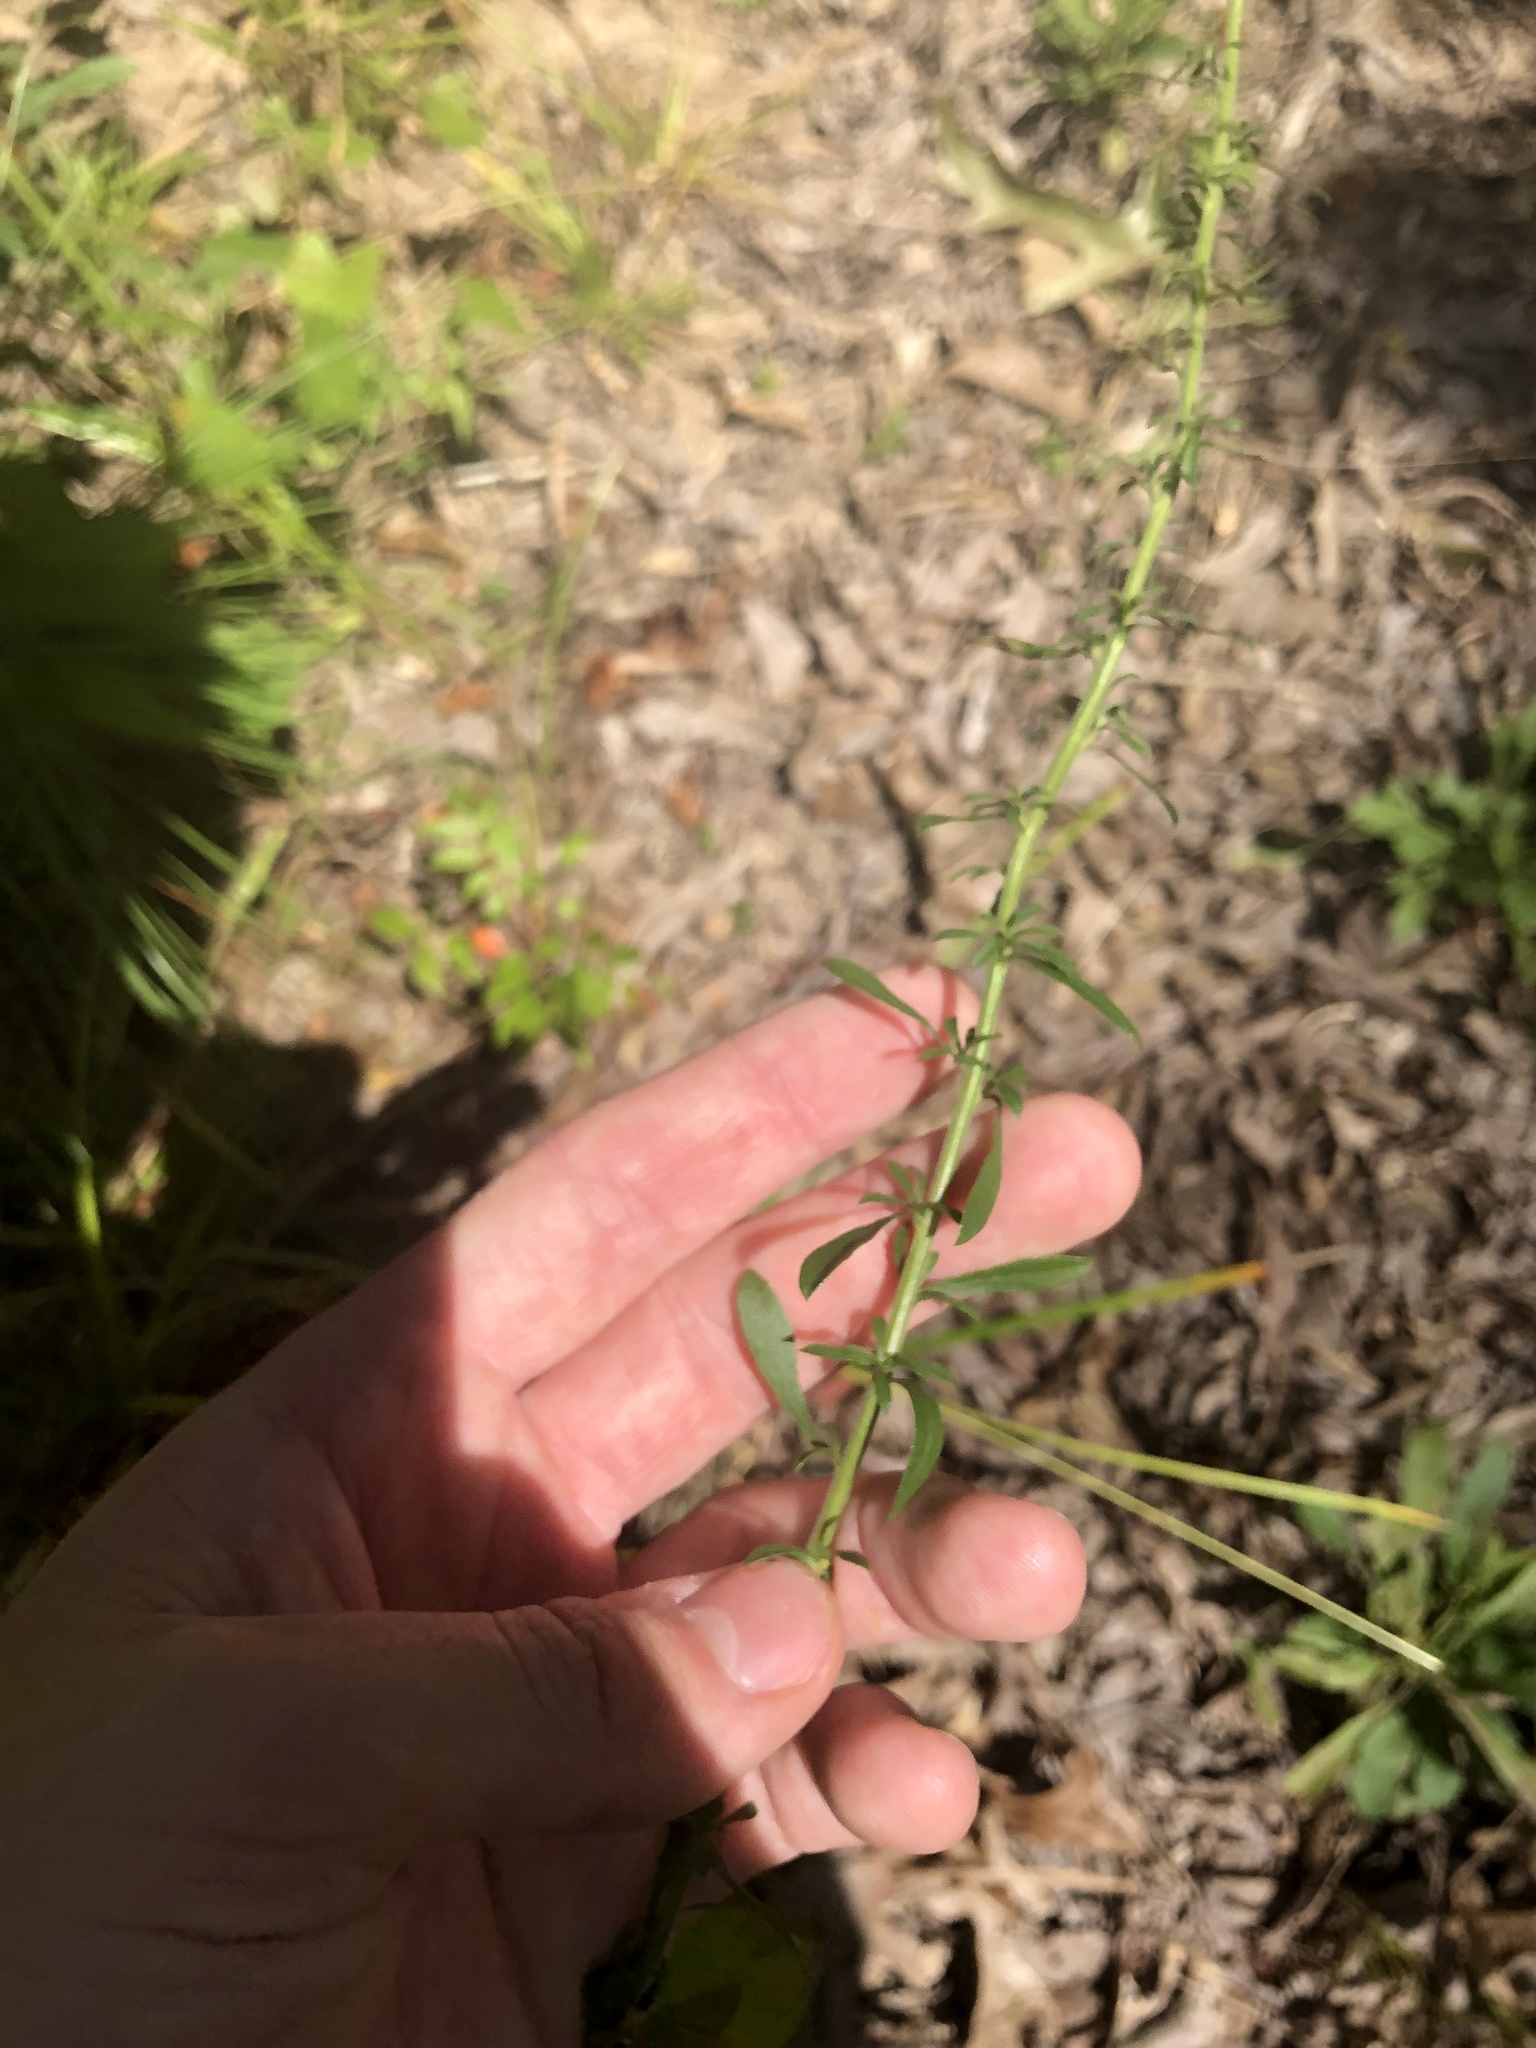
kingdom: Plantae
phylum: Tracheophyta
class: Magnoliopsida
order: Asterales
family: Asteraceae
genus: Solidago
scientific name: Solidago nemoralis
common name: Grey goldenrod
